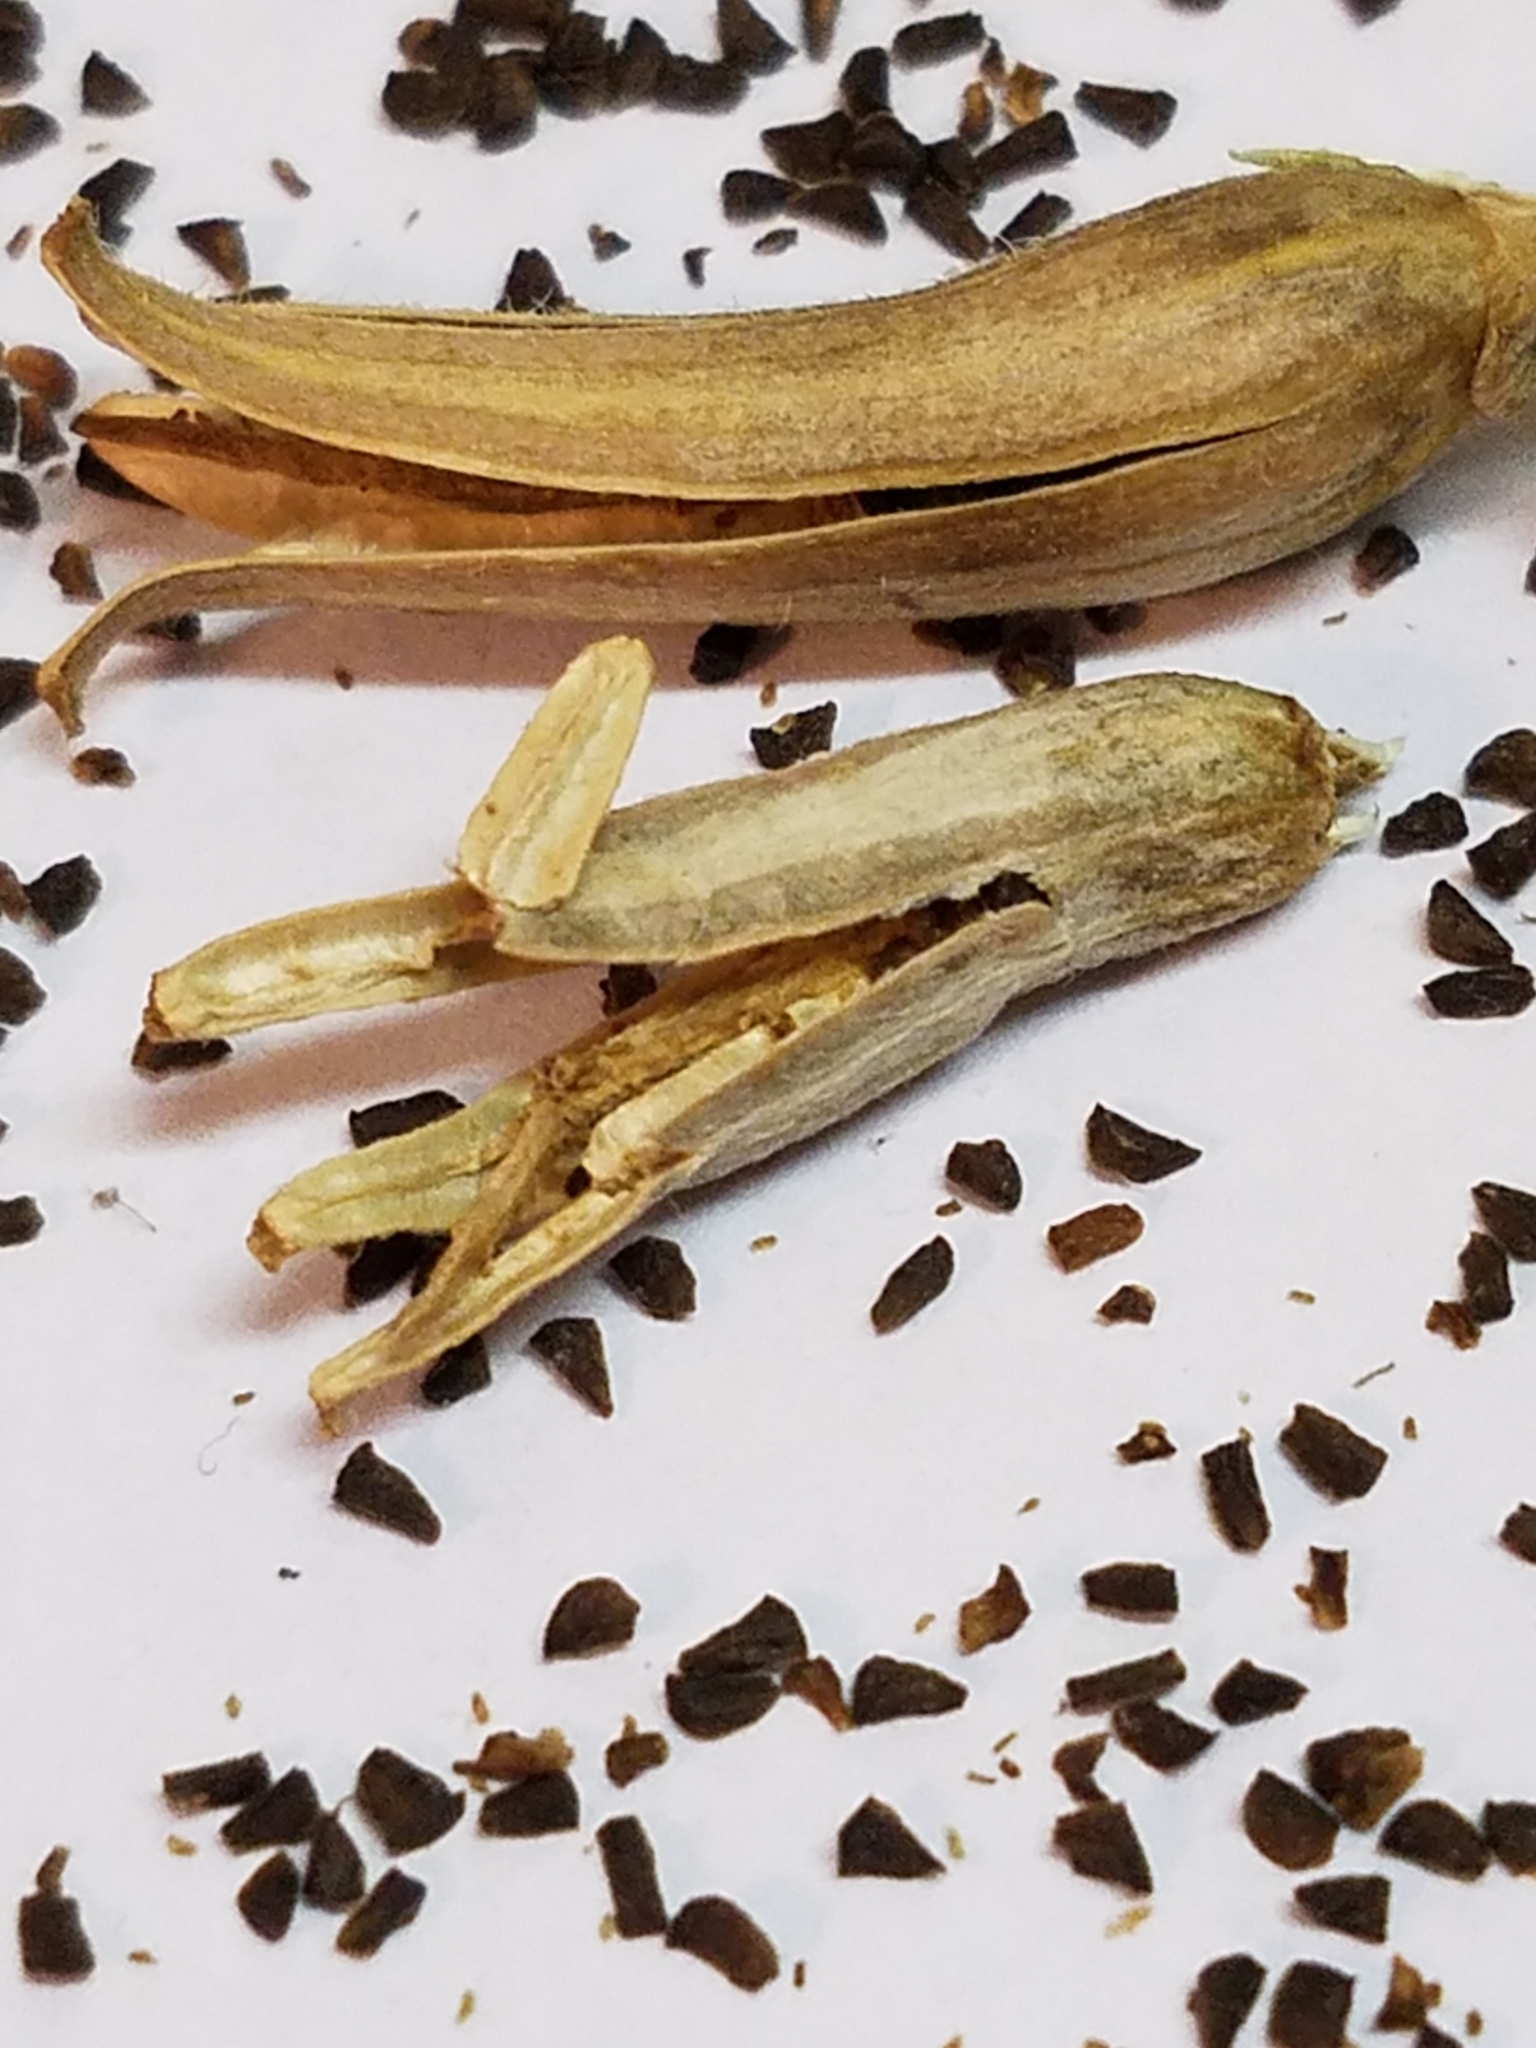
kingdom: Plantae
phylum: Tracheophyta
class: Magnoliopsida
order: Myrtales
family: Onagraceae
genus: Oenothera
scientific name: Oenothera biennis
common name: Common evening-primrose
